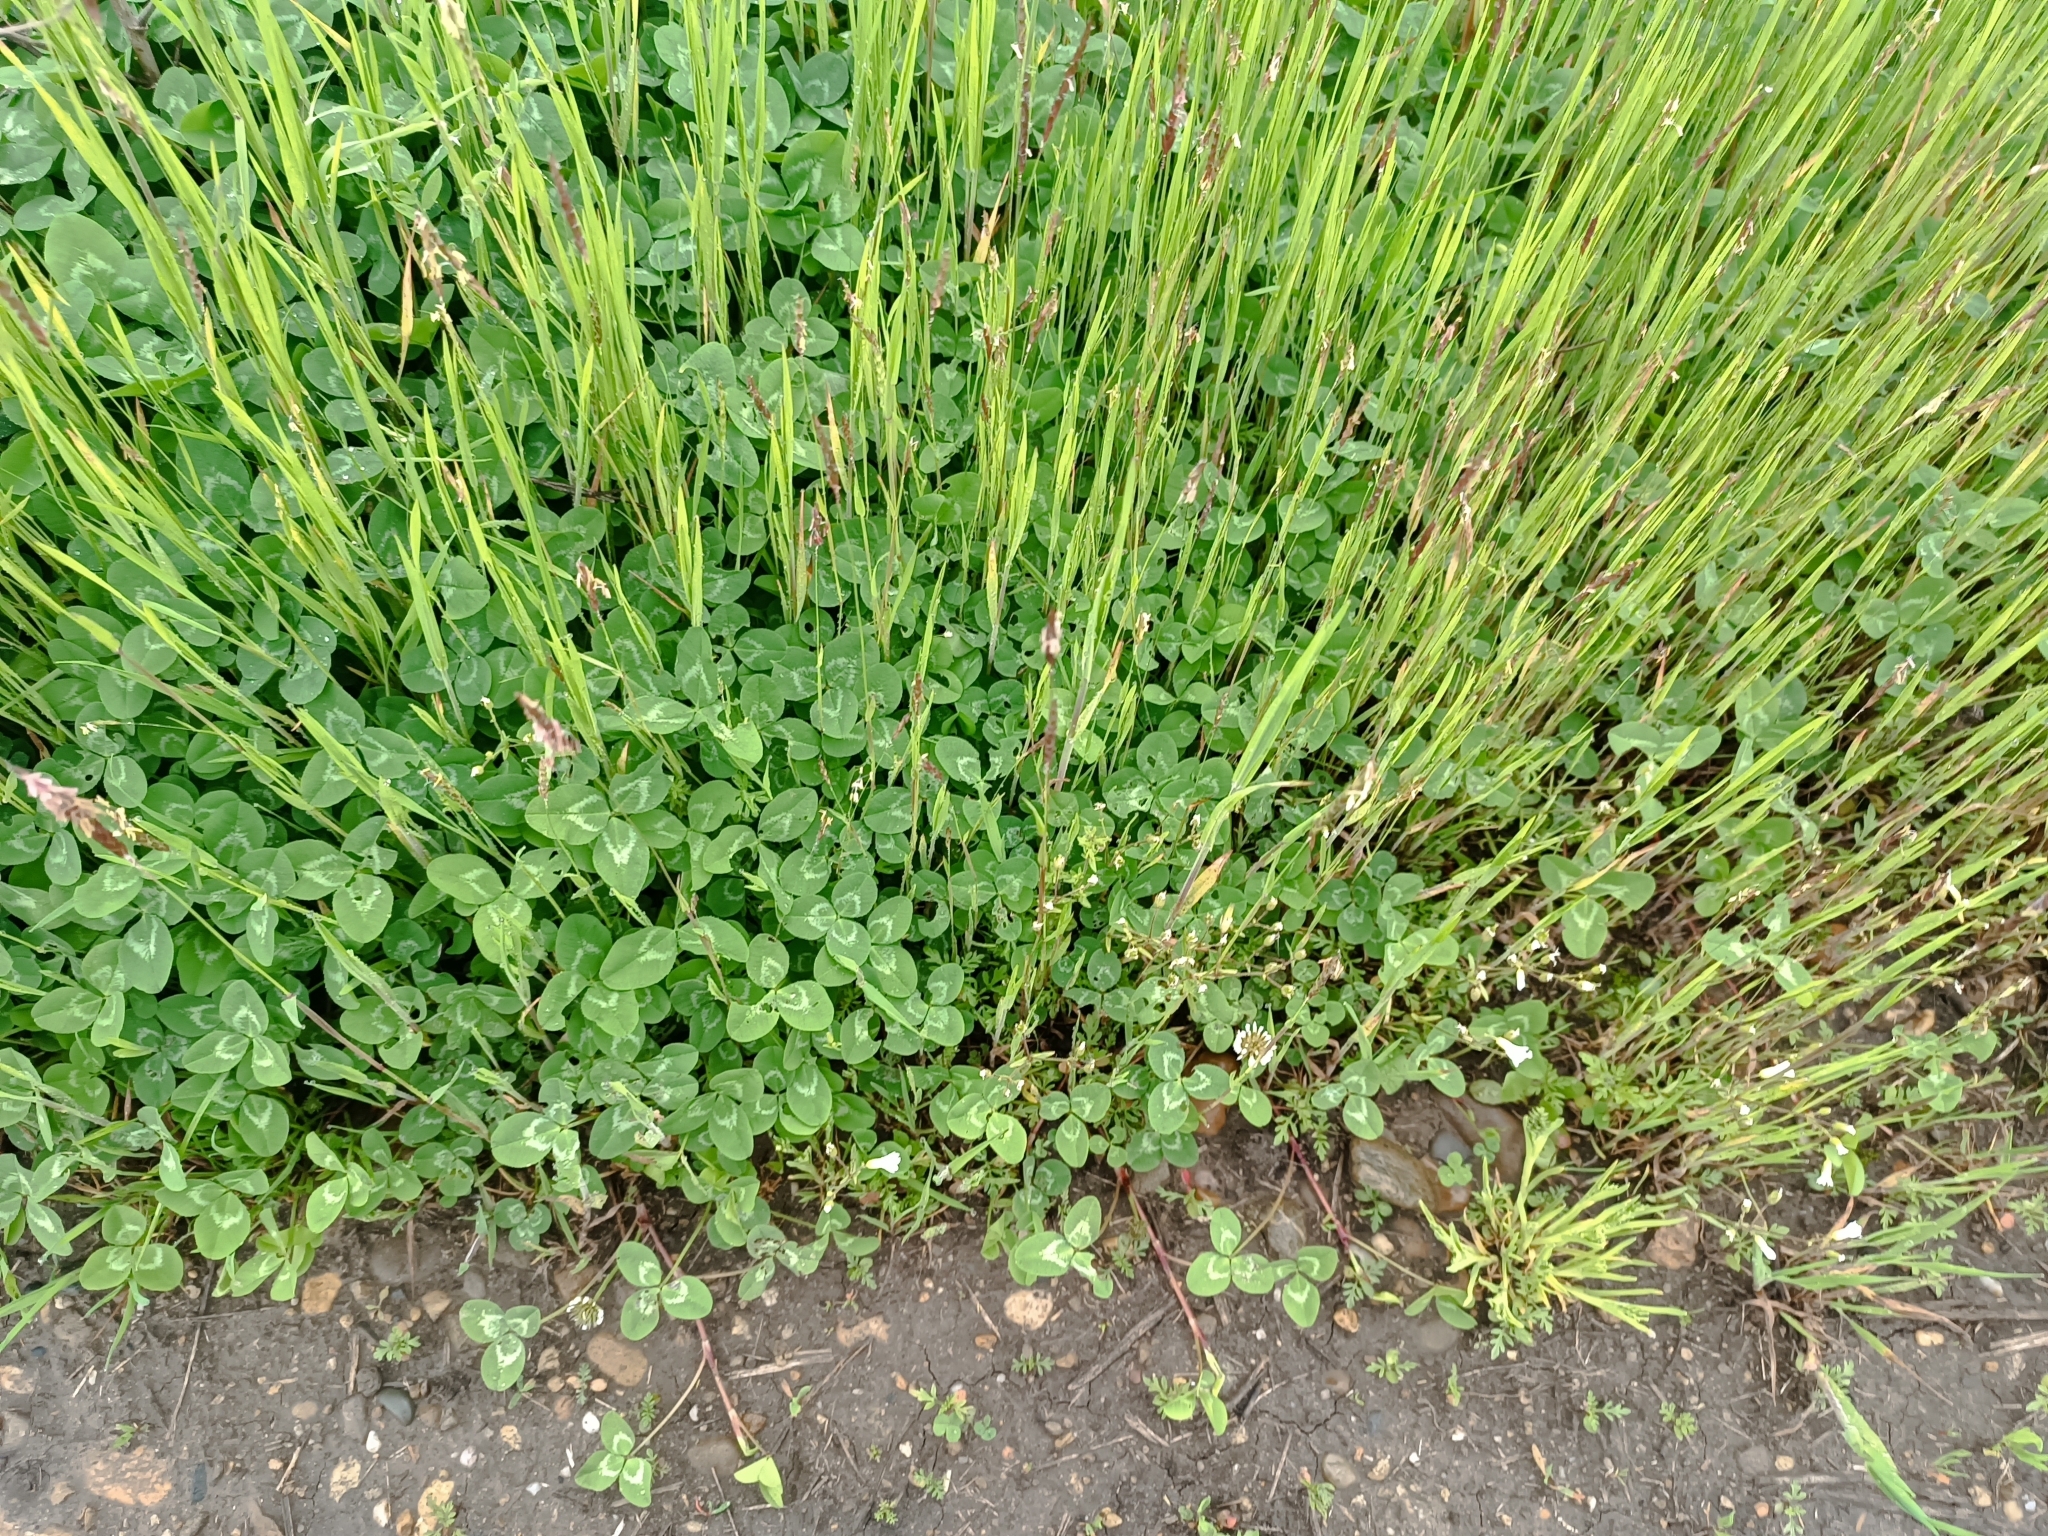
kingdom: Plantae
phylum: Tracheophyta
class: Magnoliopsida
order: Fabales
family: Fabaceae
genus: Trifolium
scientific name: Trifolium repens
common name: White clover
